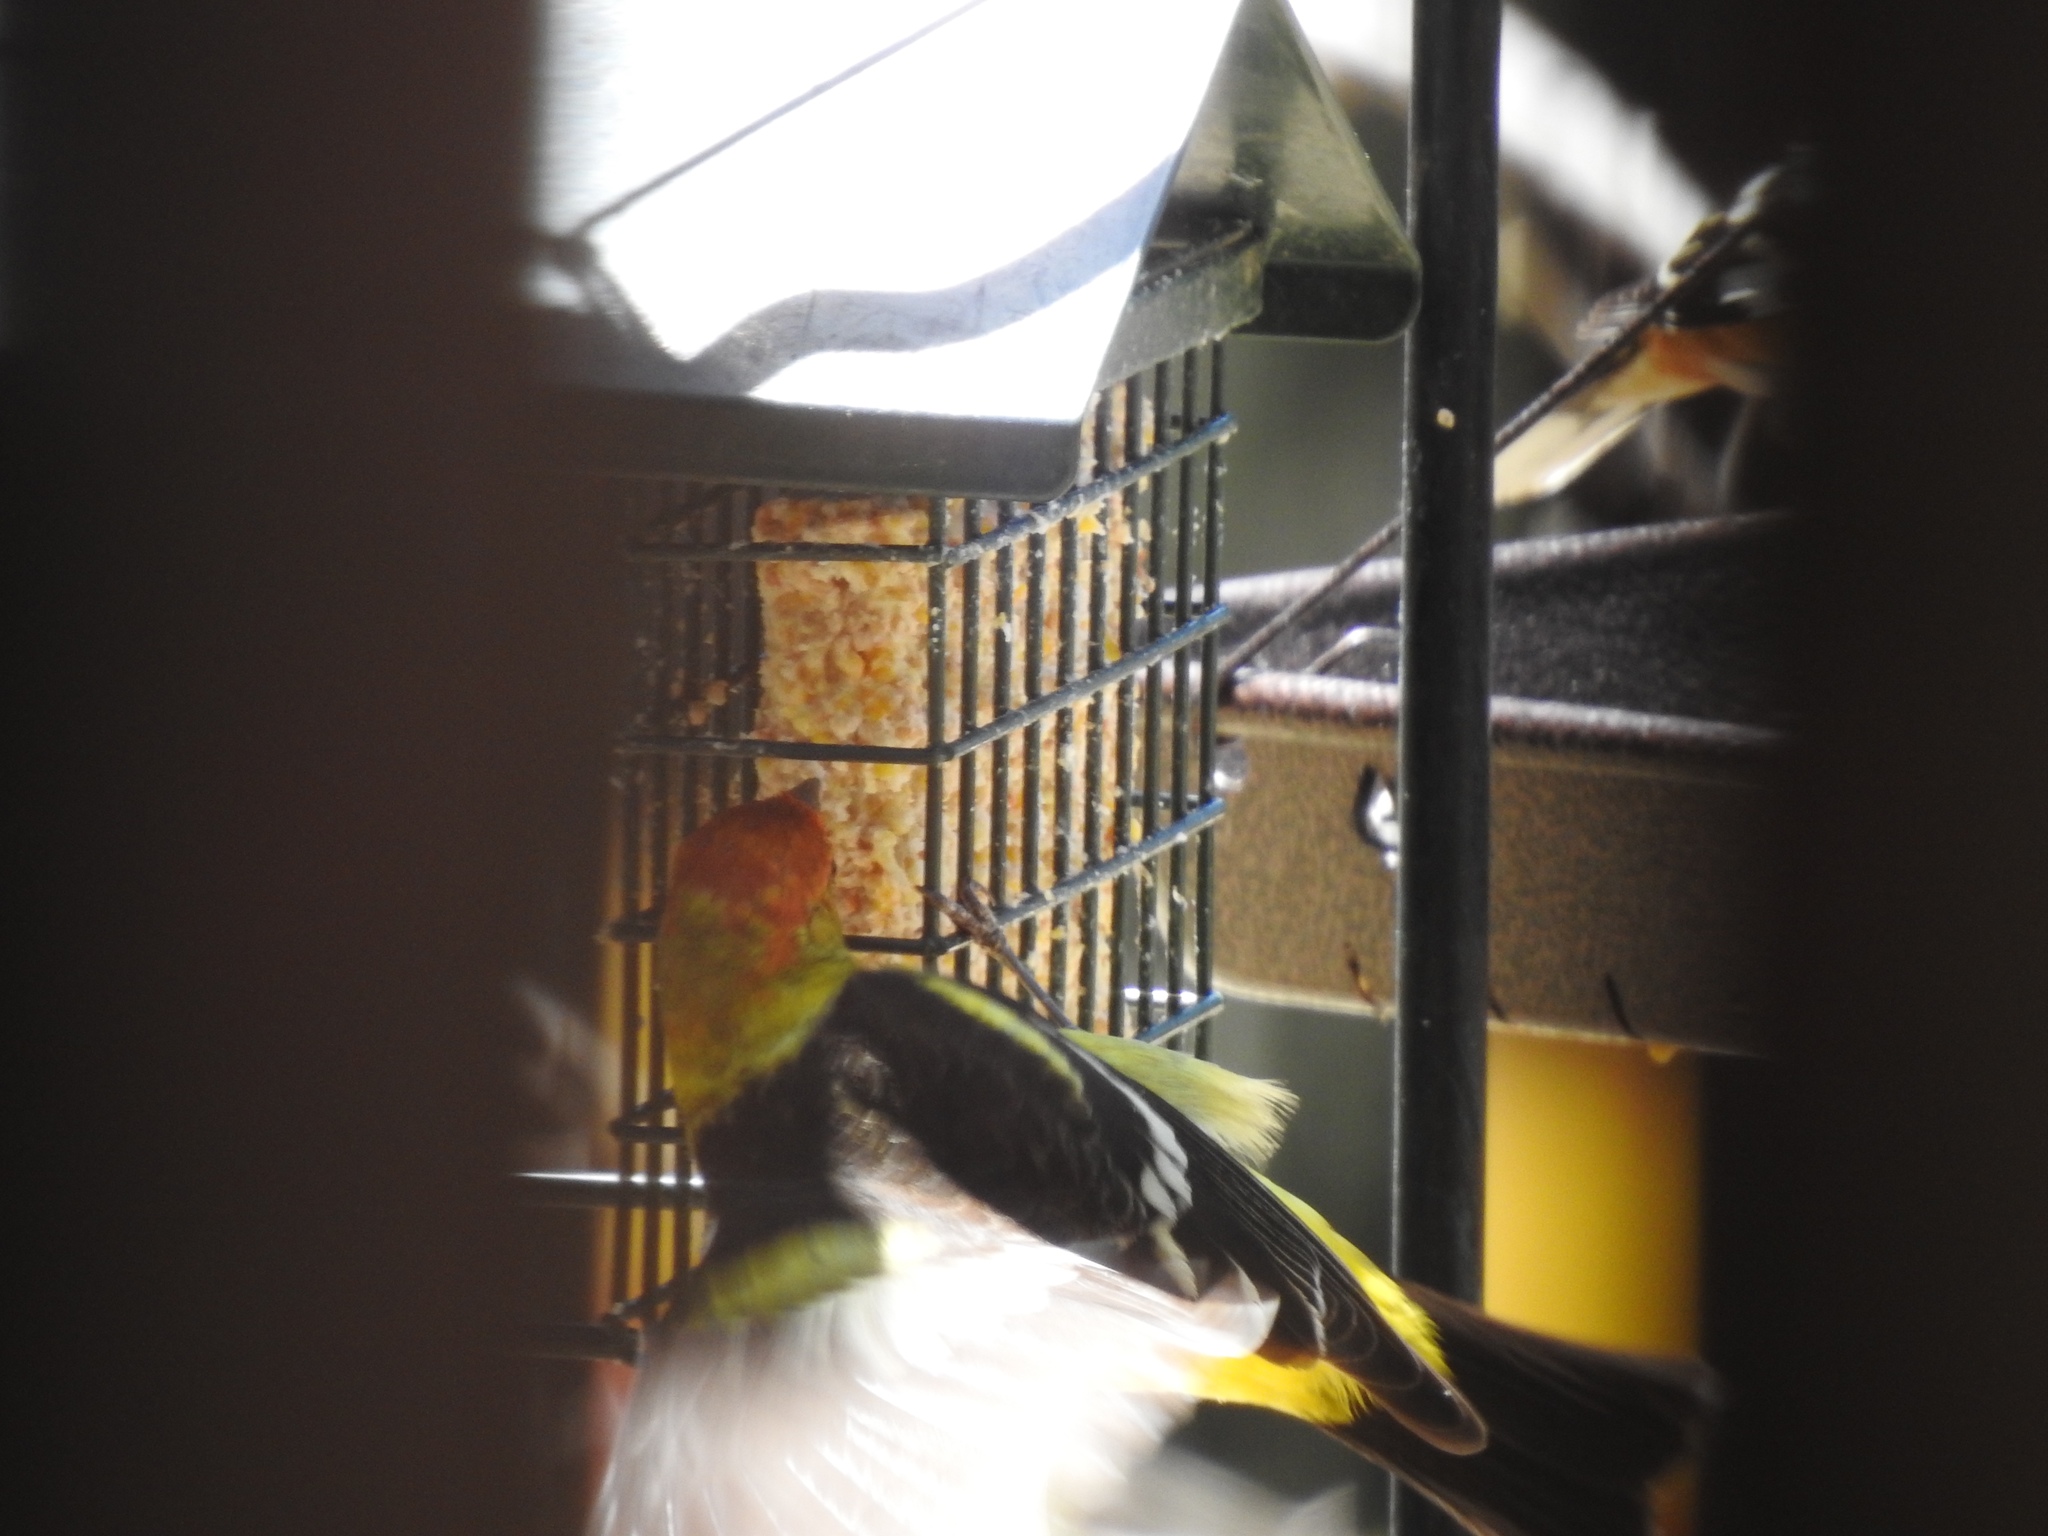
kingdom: Animalia
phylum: Chordata
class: Aves
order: Passeriformes
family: Cardinalidae
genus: Piranga
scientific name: Piranga ludoviciana
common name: Western tanager
